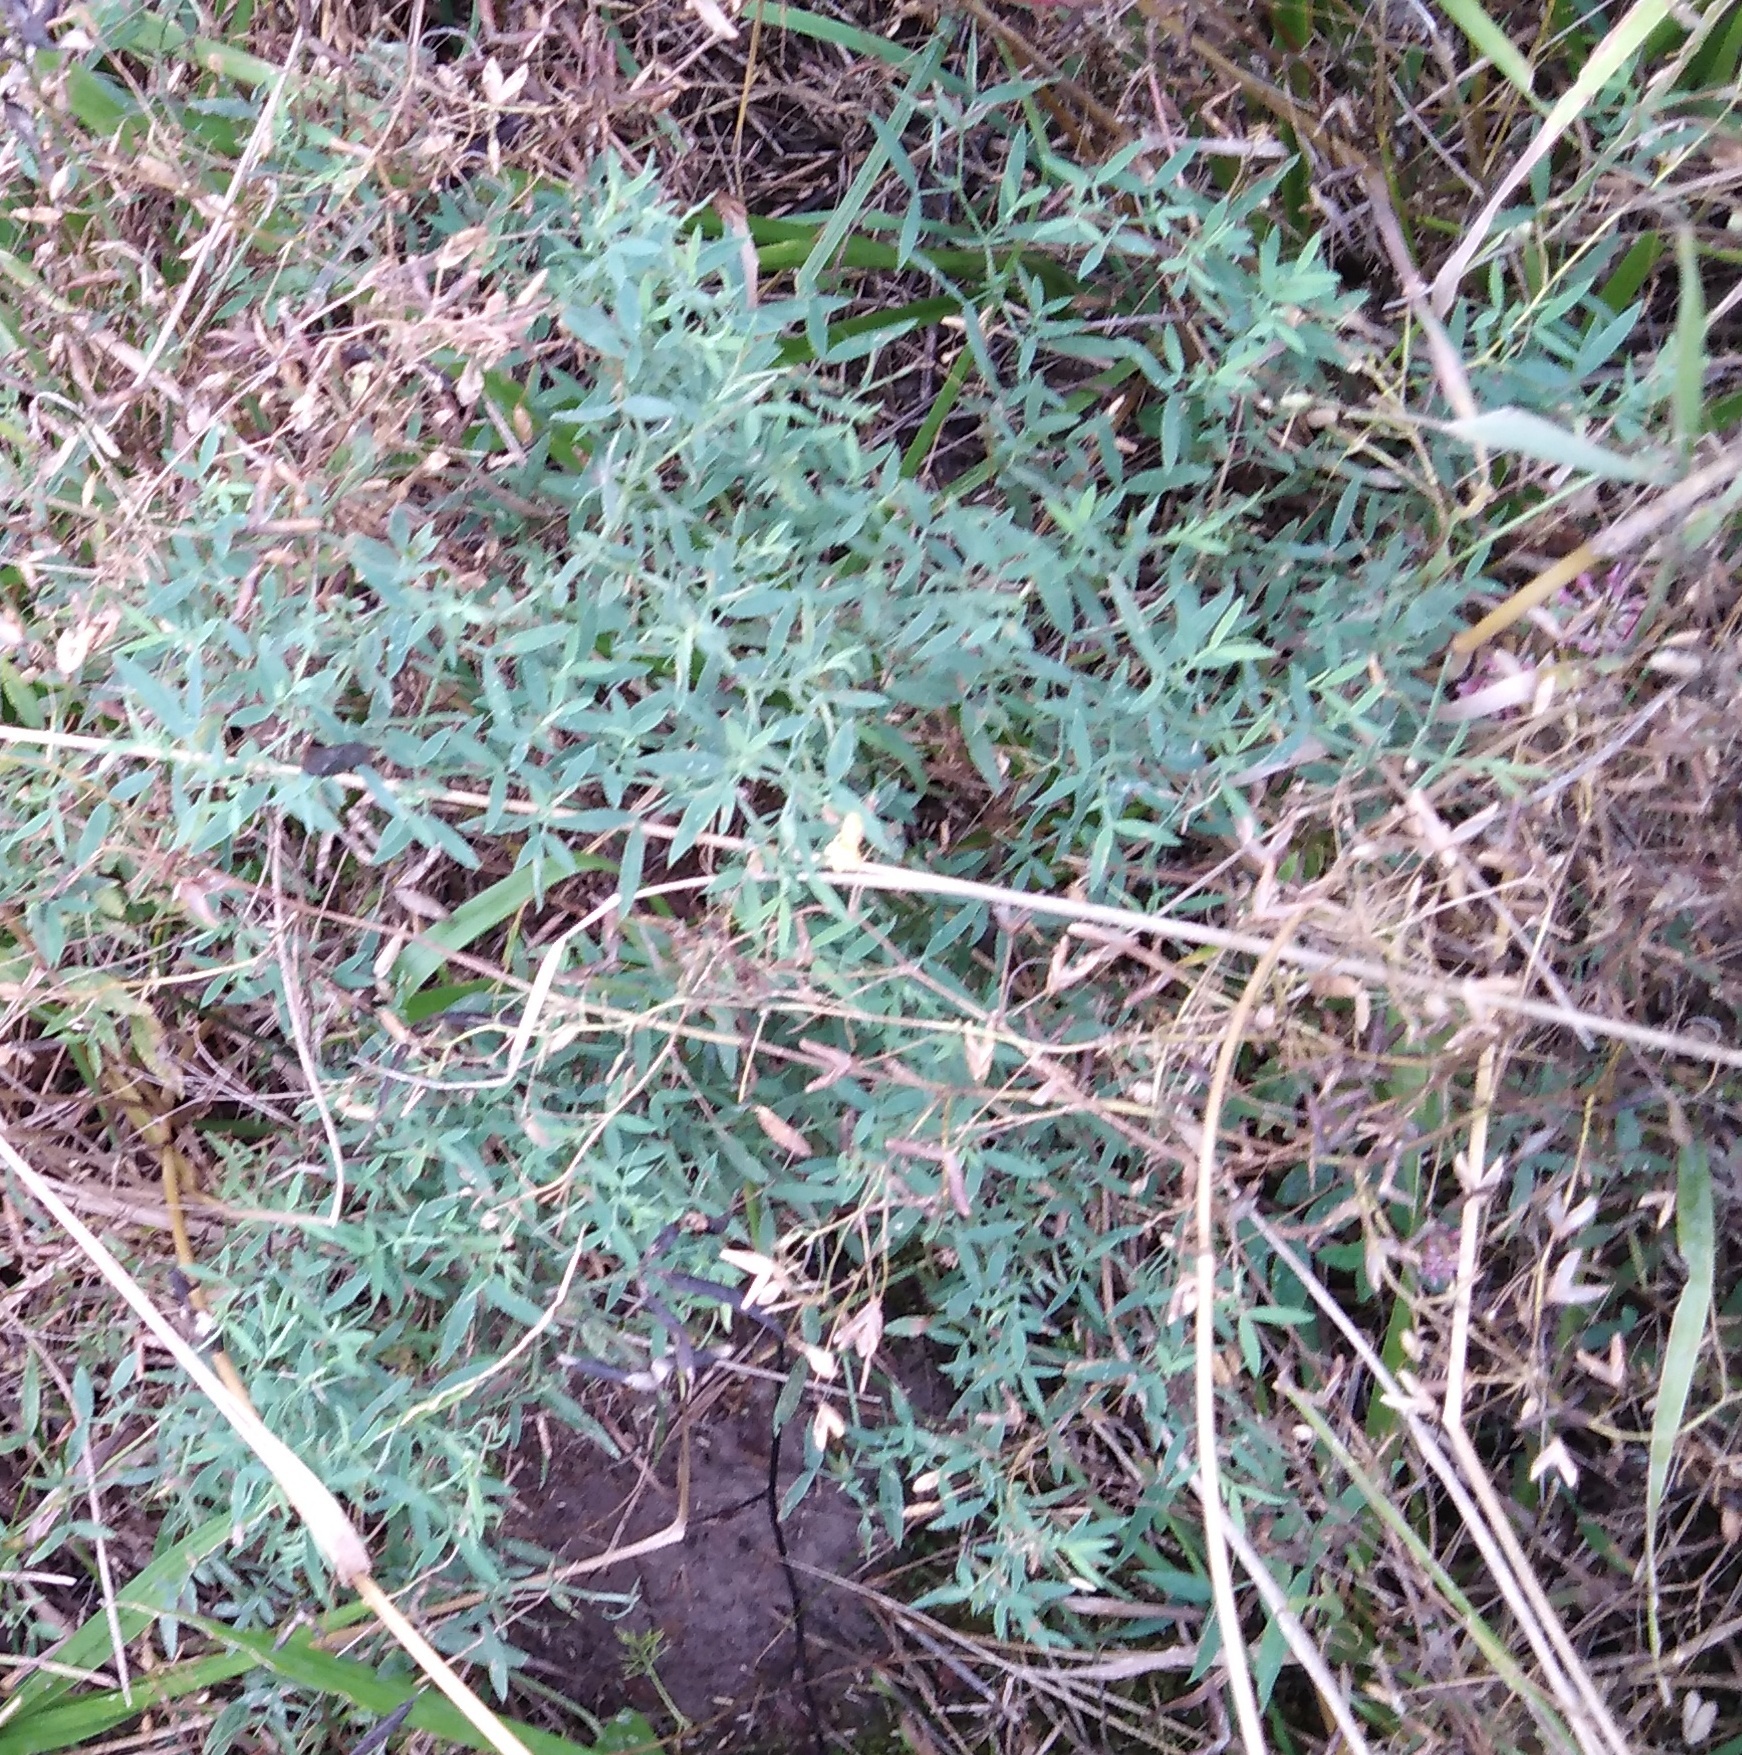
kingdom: Plantae
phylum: Tracheophyta
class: Magnoliopsida
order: Fabales
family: Fabaceae
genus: Lathyrus
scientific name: Lathyrus pratensis
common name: Meadow vetchling
